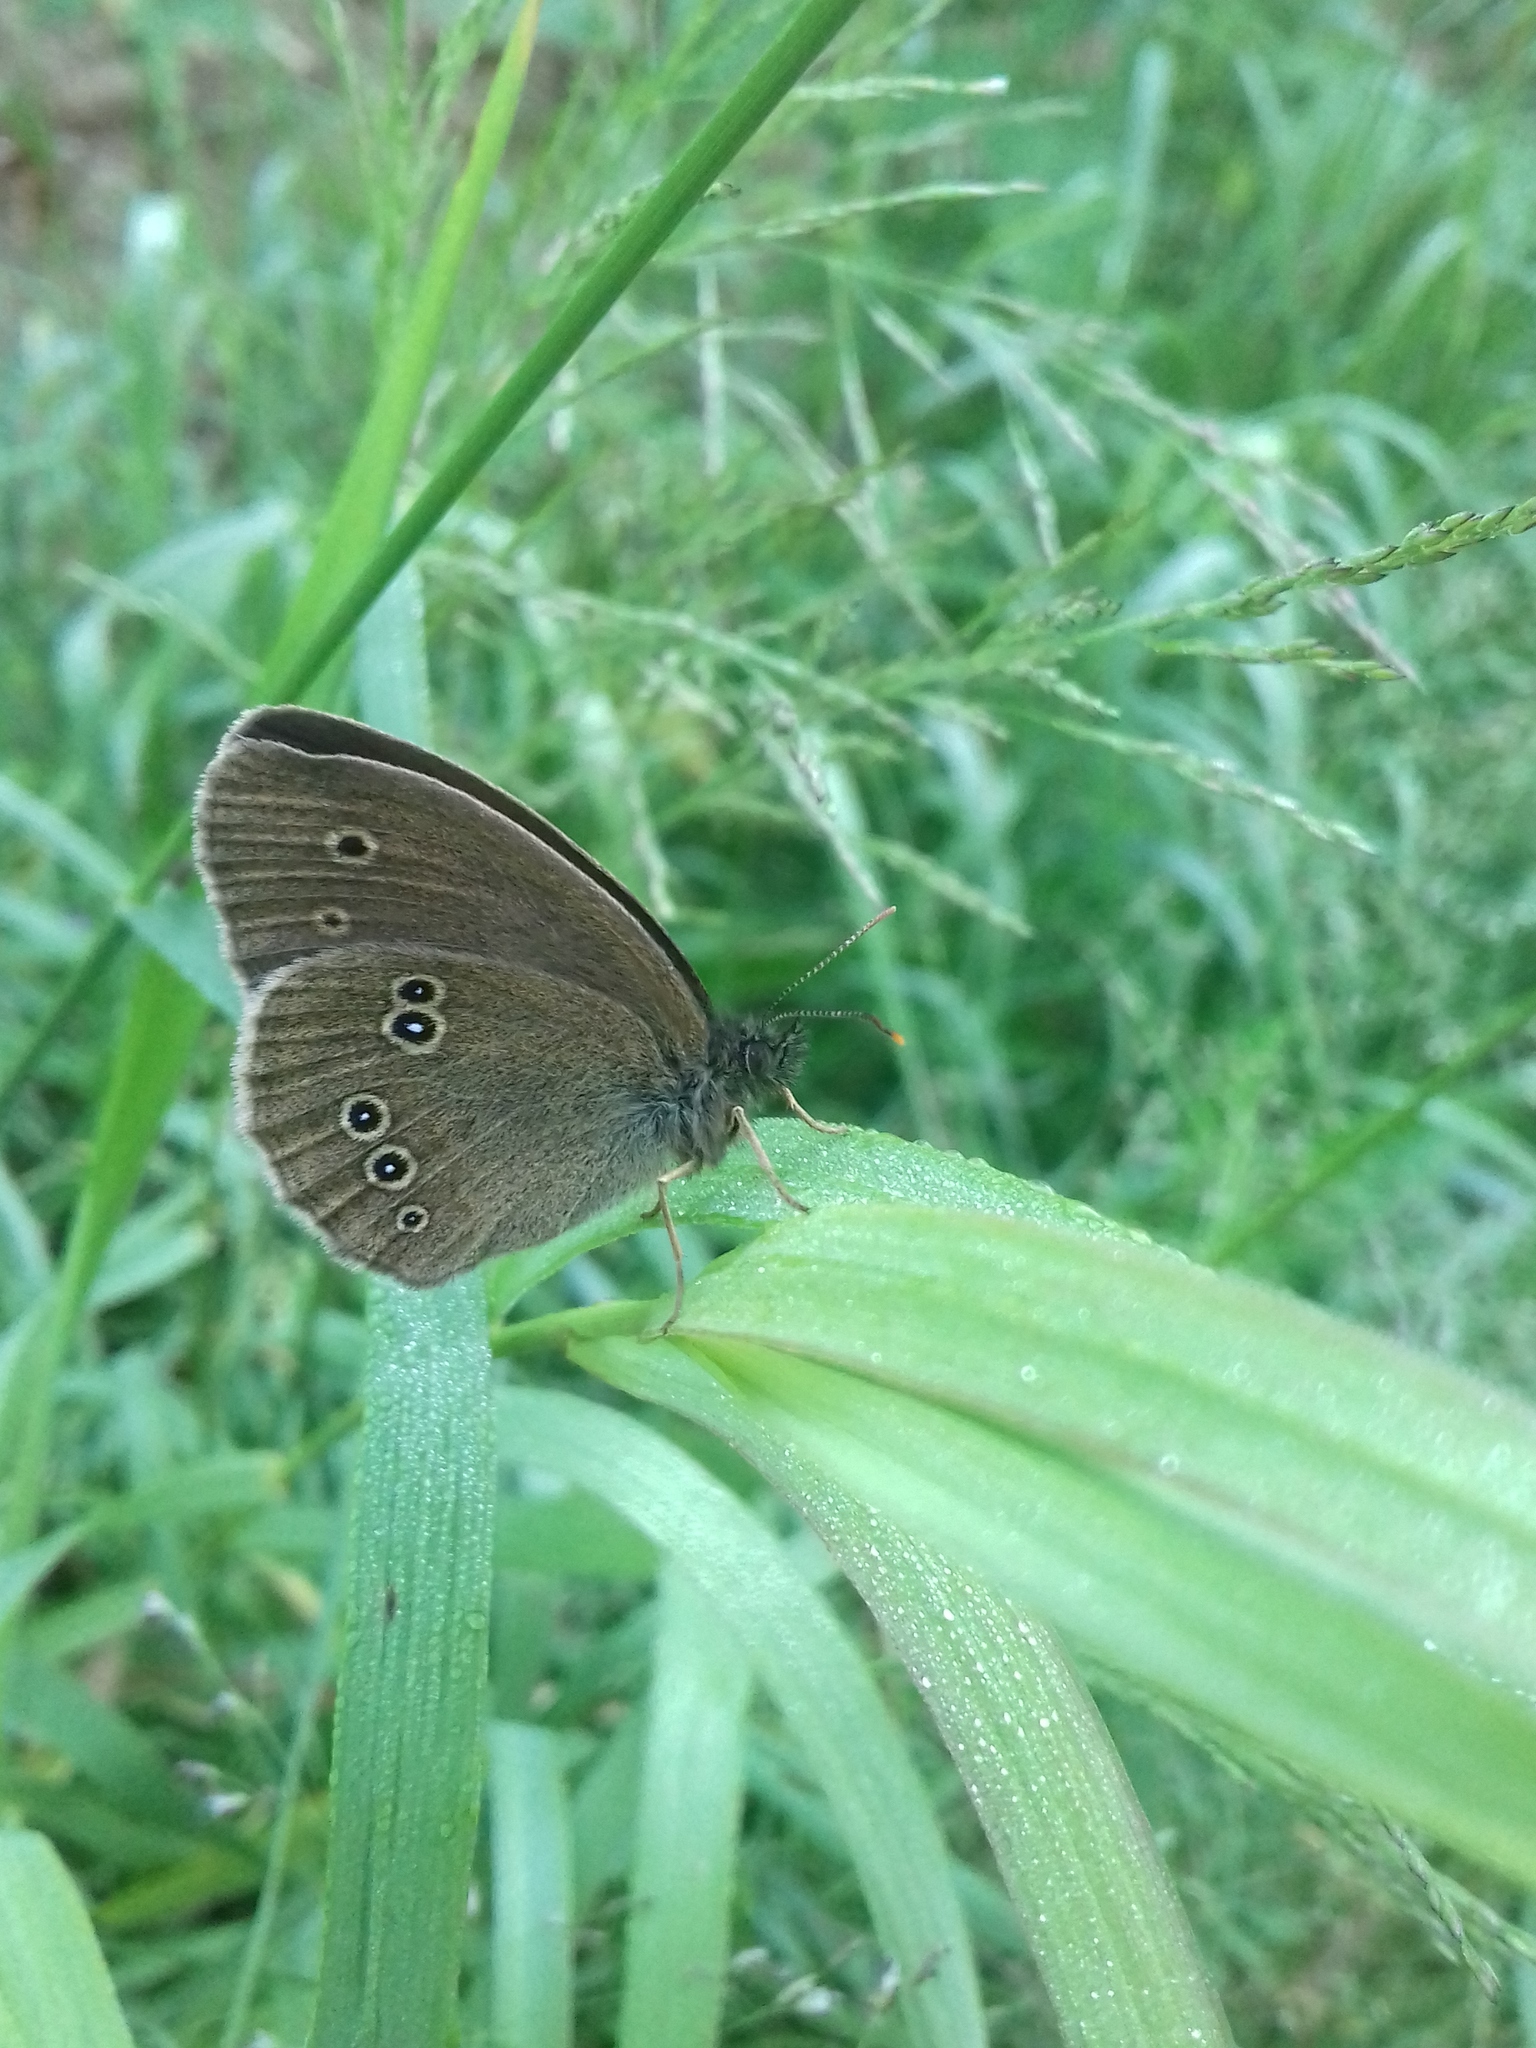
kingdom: Animalia
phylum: Arthropoda
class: Insecta
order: Lepidoptera
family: Nymphalidae
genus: Aphantopus
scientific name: Aphantopus hyperantus
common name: Ringlet
